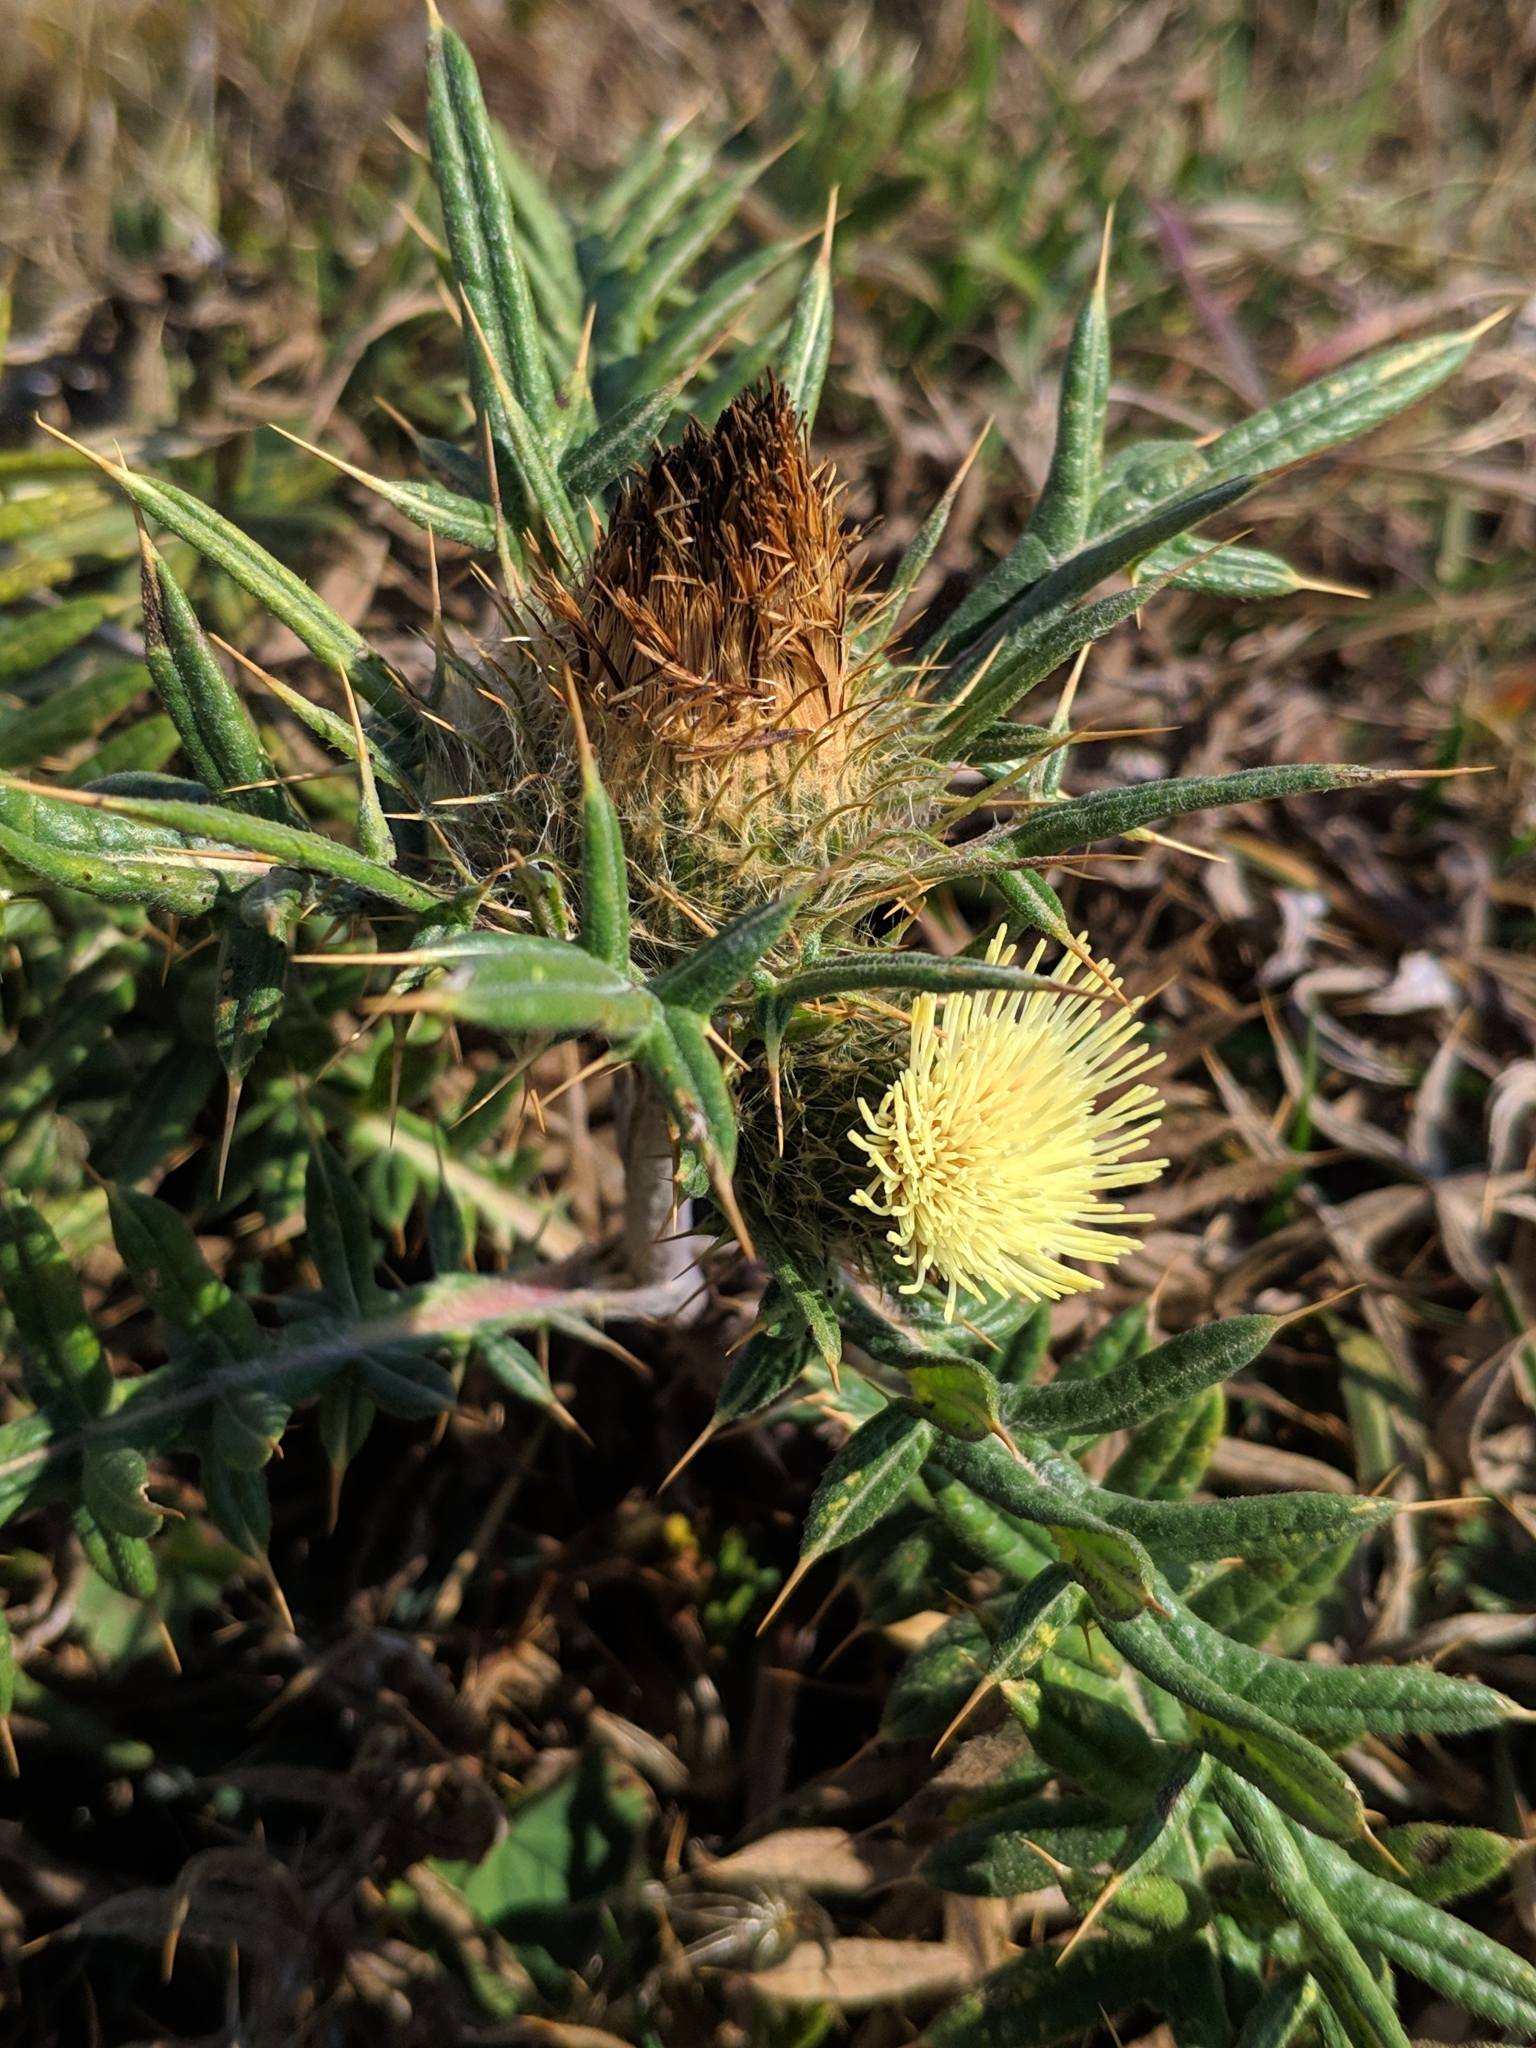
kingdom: Plantae
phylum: Tracheophyta
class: Magnoliopsida
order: Asterales
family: Asteraceae
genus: Lophiolepis
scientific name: Lophiolepis kosmelii
